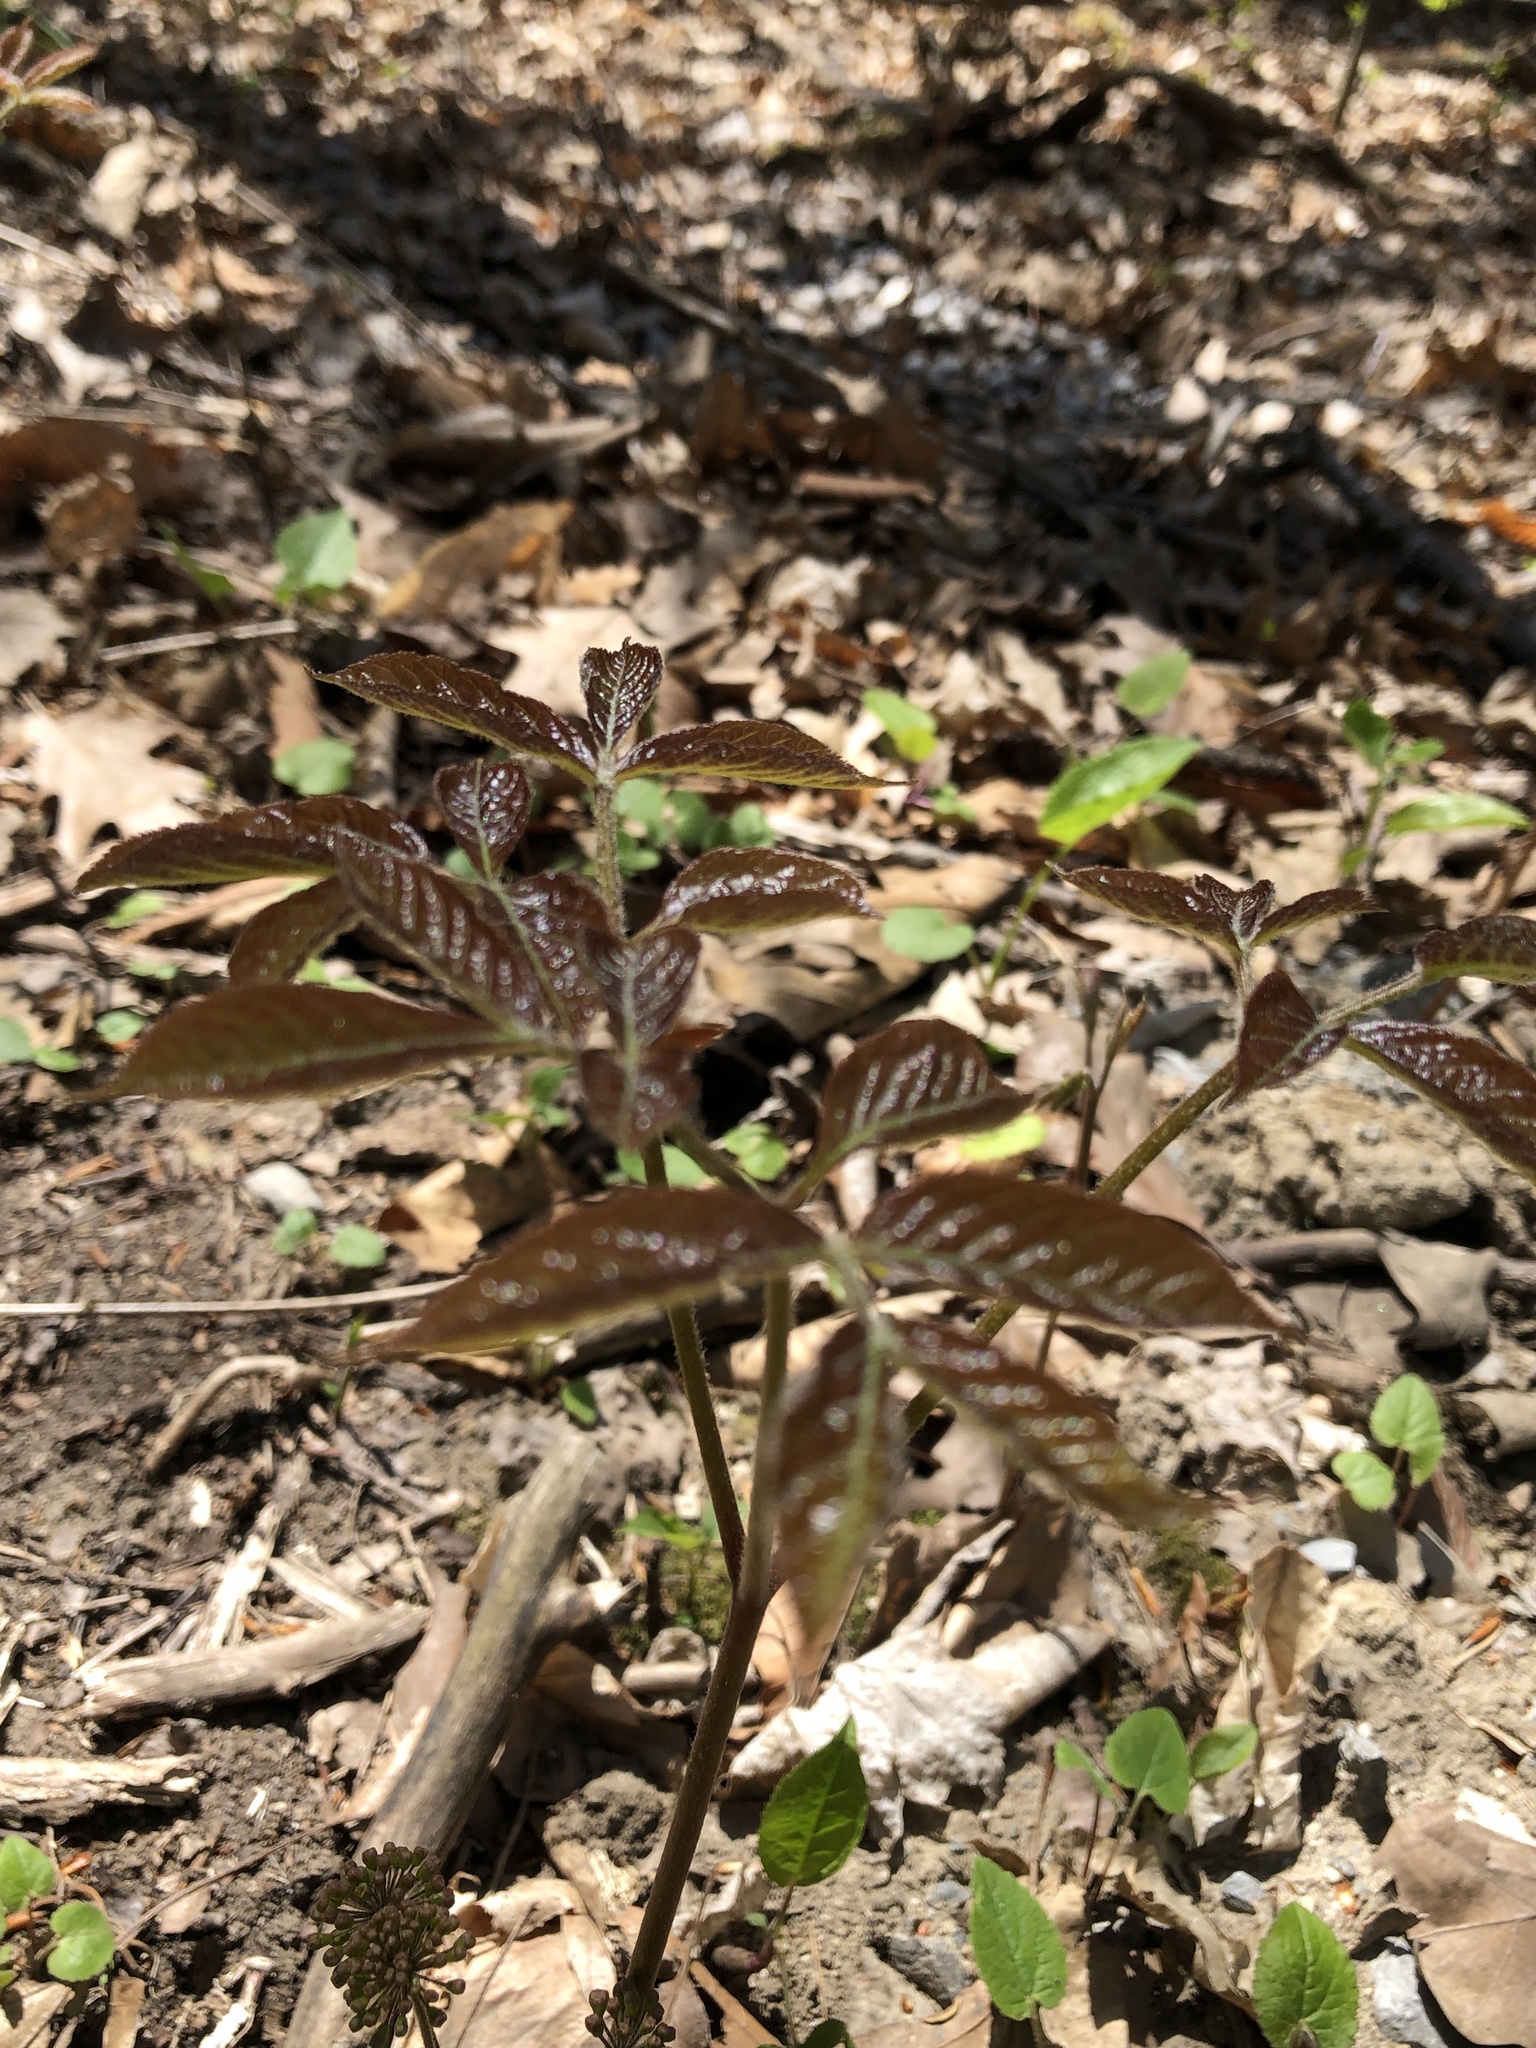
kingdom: Plantae
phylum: Tracheophyta
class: Magnoliopsida
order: Apiales
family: Araliaceae
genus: Aralia
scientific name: Aralia nudicaulis
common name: Wild sarsaparilla
